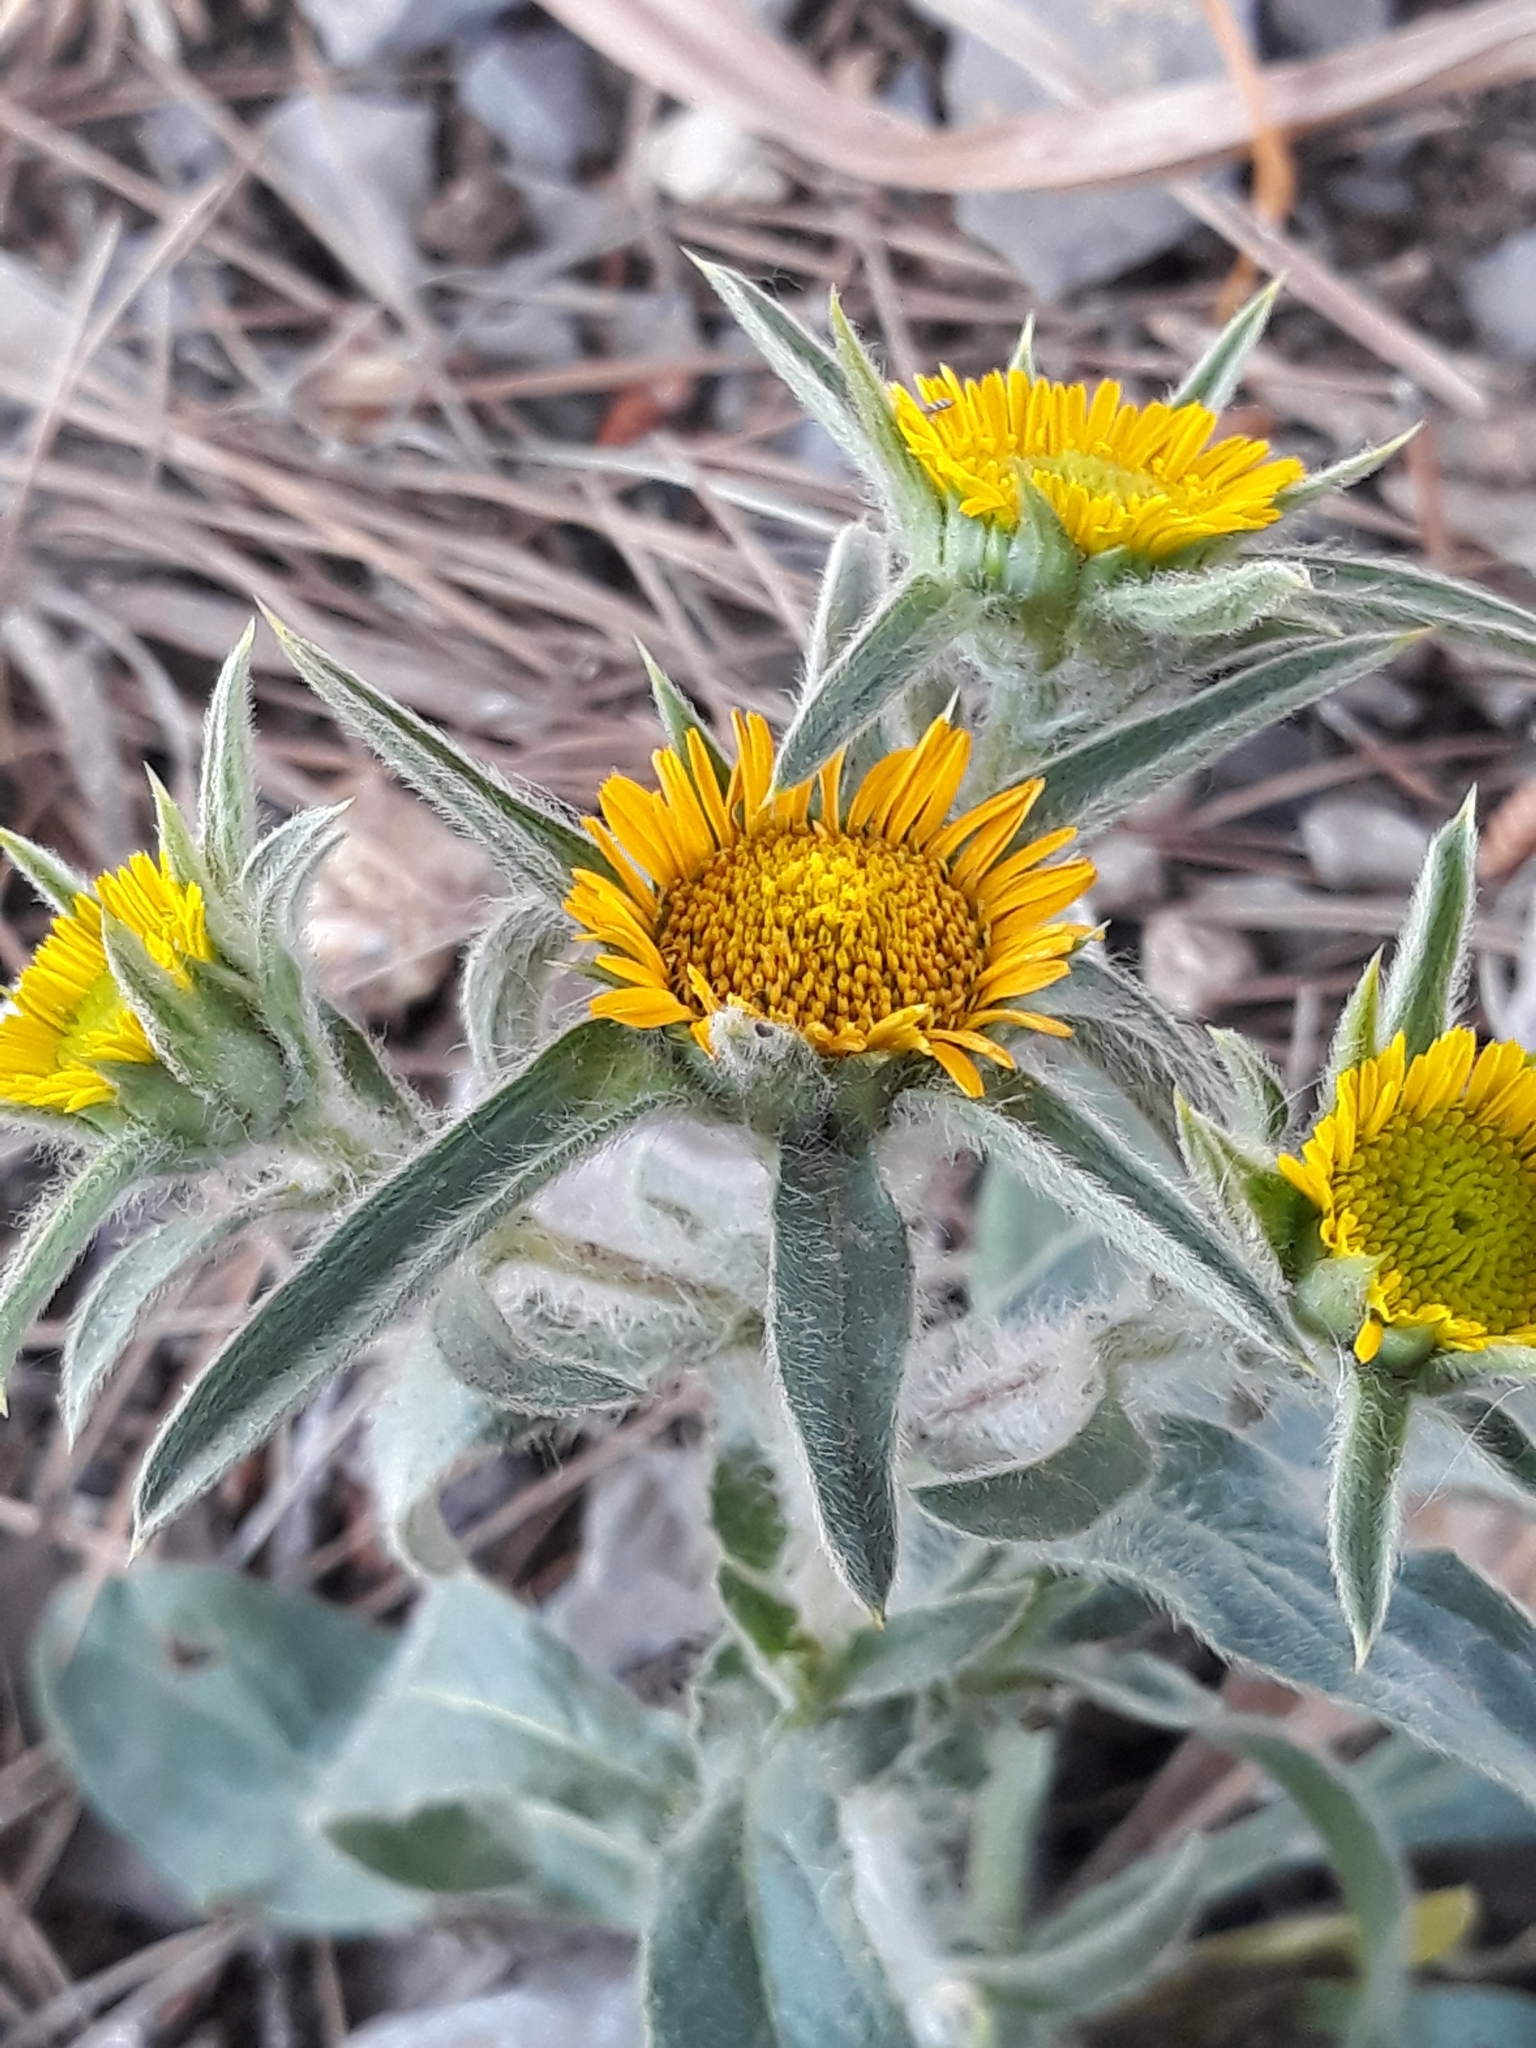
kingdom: Plantae
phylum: Tracheophyta
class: Magnoliopsida
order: Asterales
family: Asteraceae
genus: Pallenis
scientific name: Pallenis spinosa
